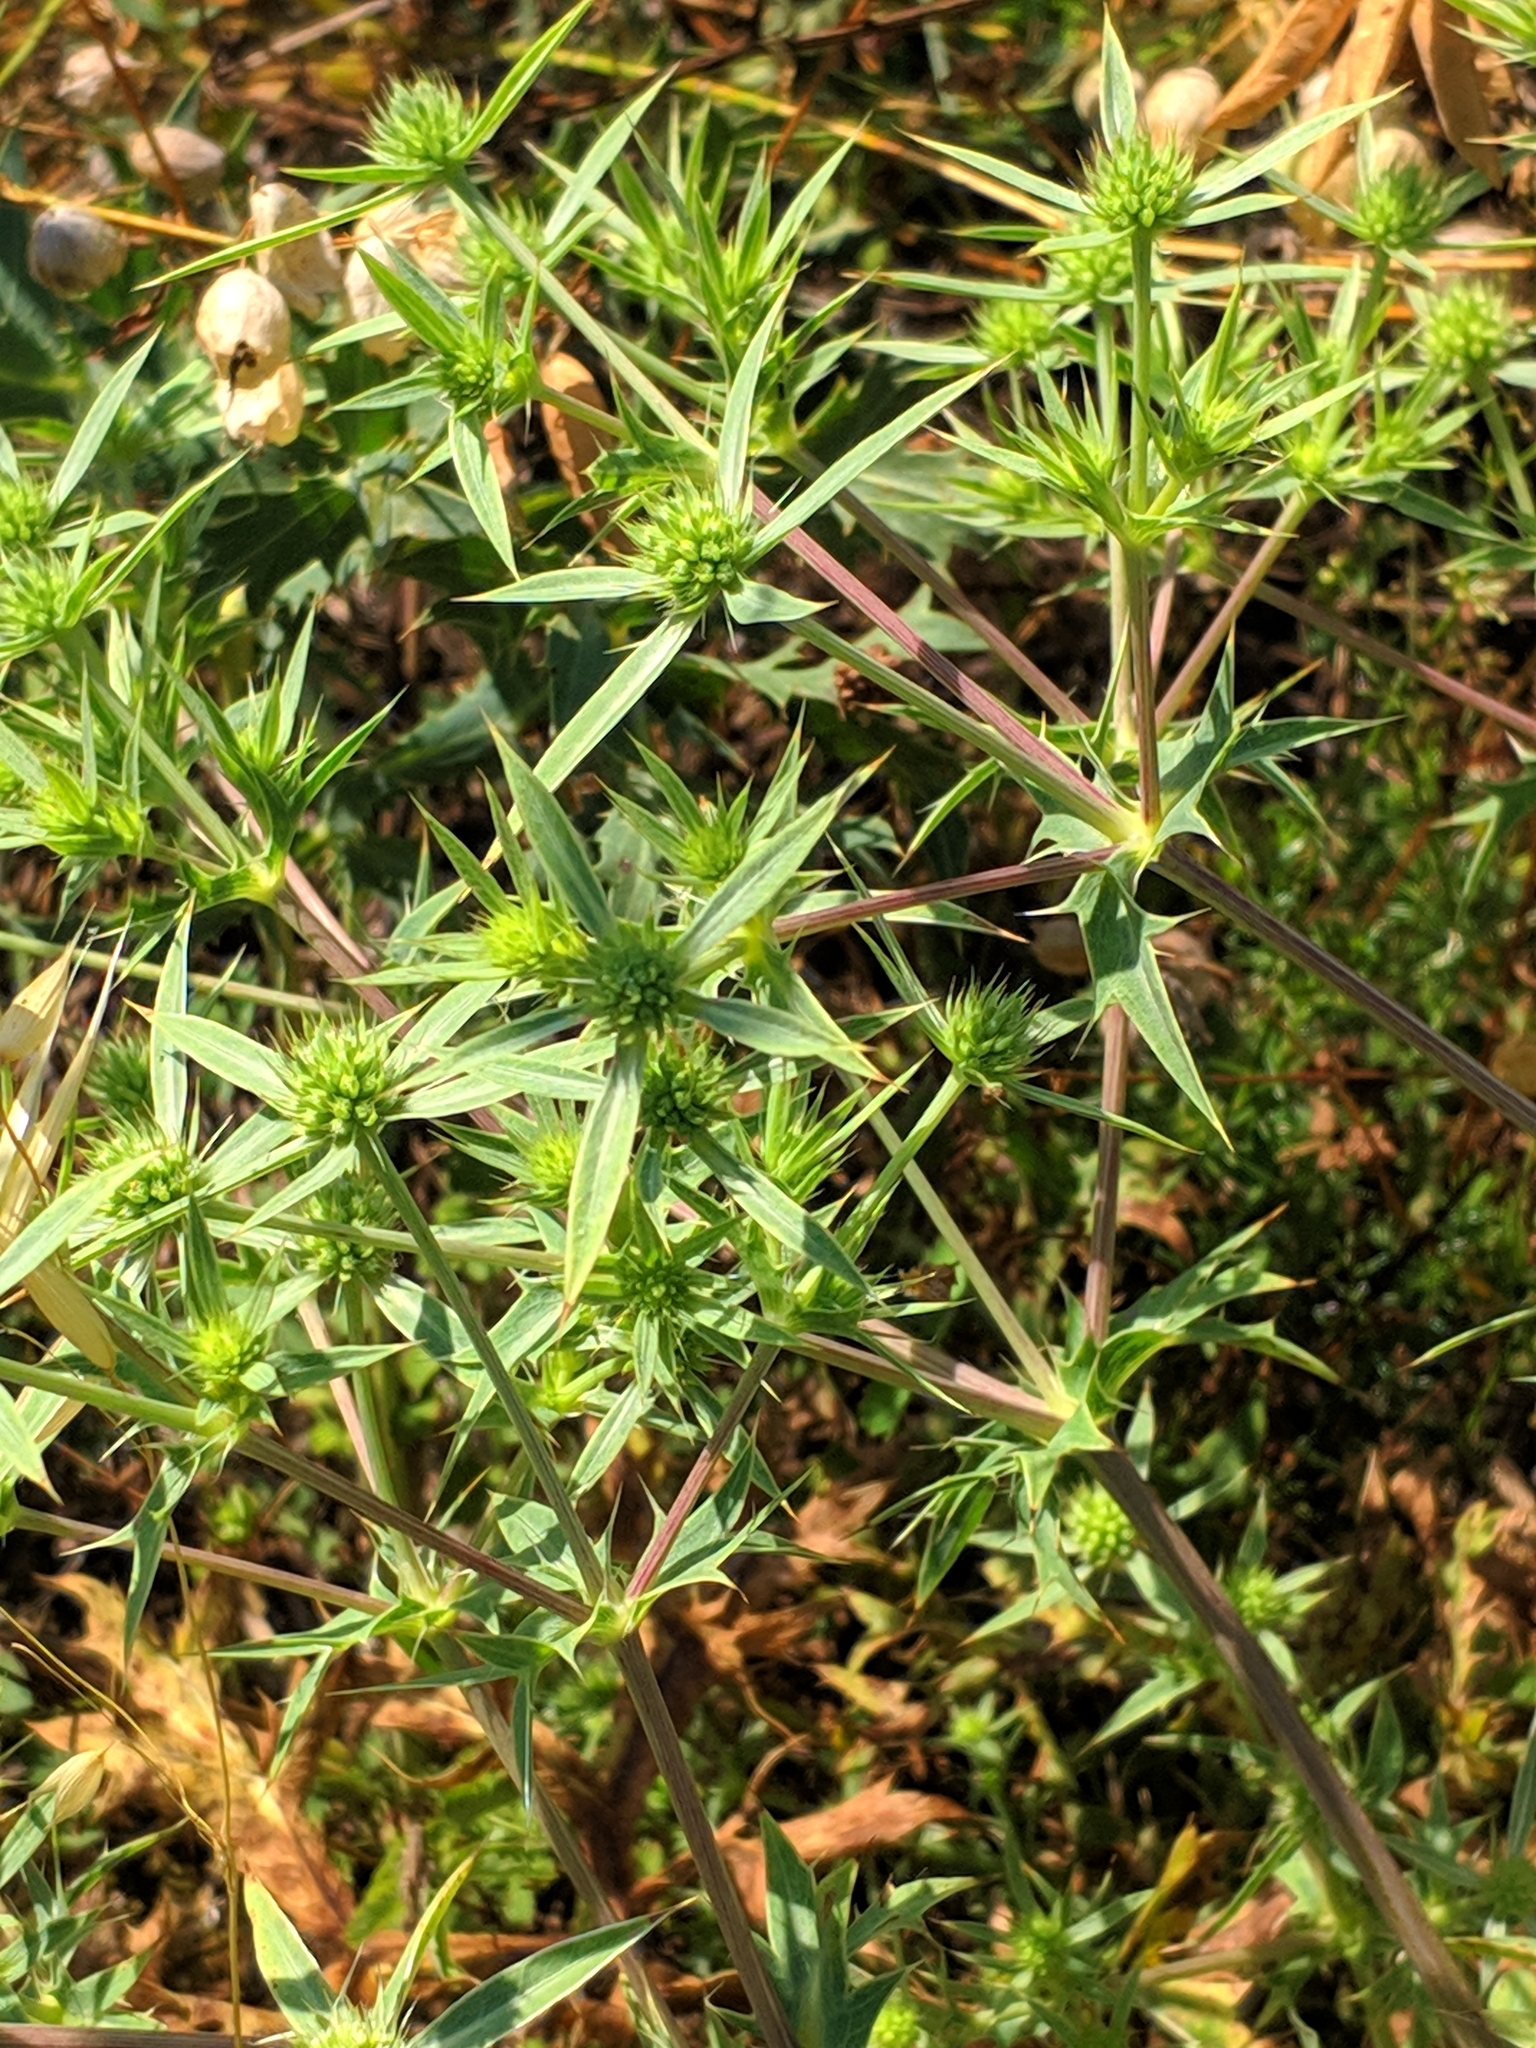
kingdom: Plantae
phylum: Tracheophyta
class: Magnoliopsida
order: Apiales
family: Apiaceae
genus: Eryngium
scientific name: Eryngium campestre
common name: Field eryngo
